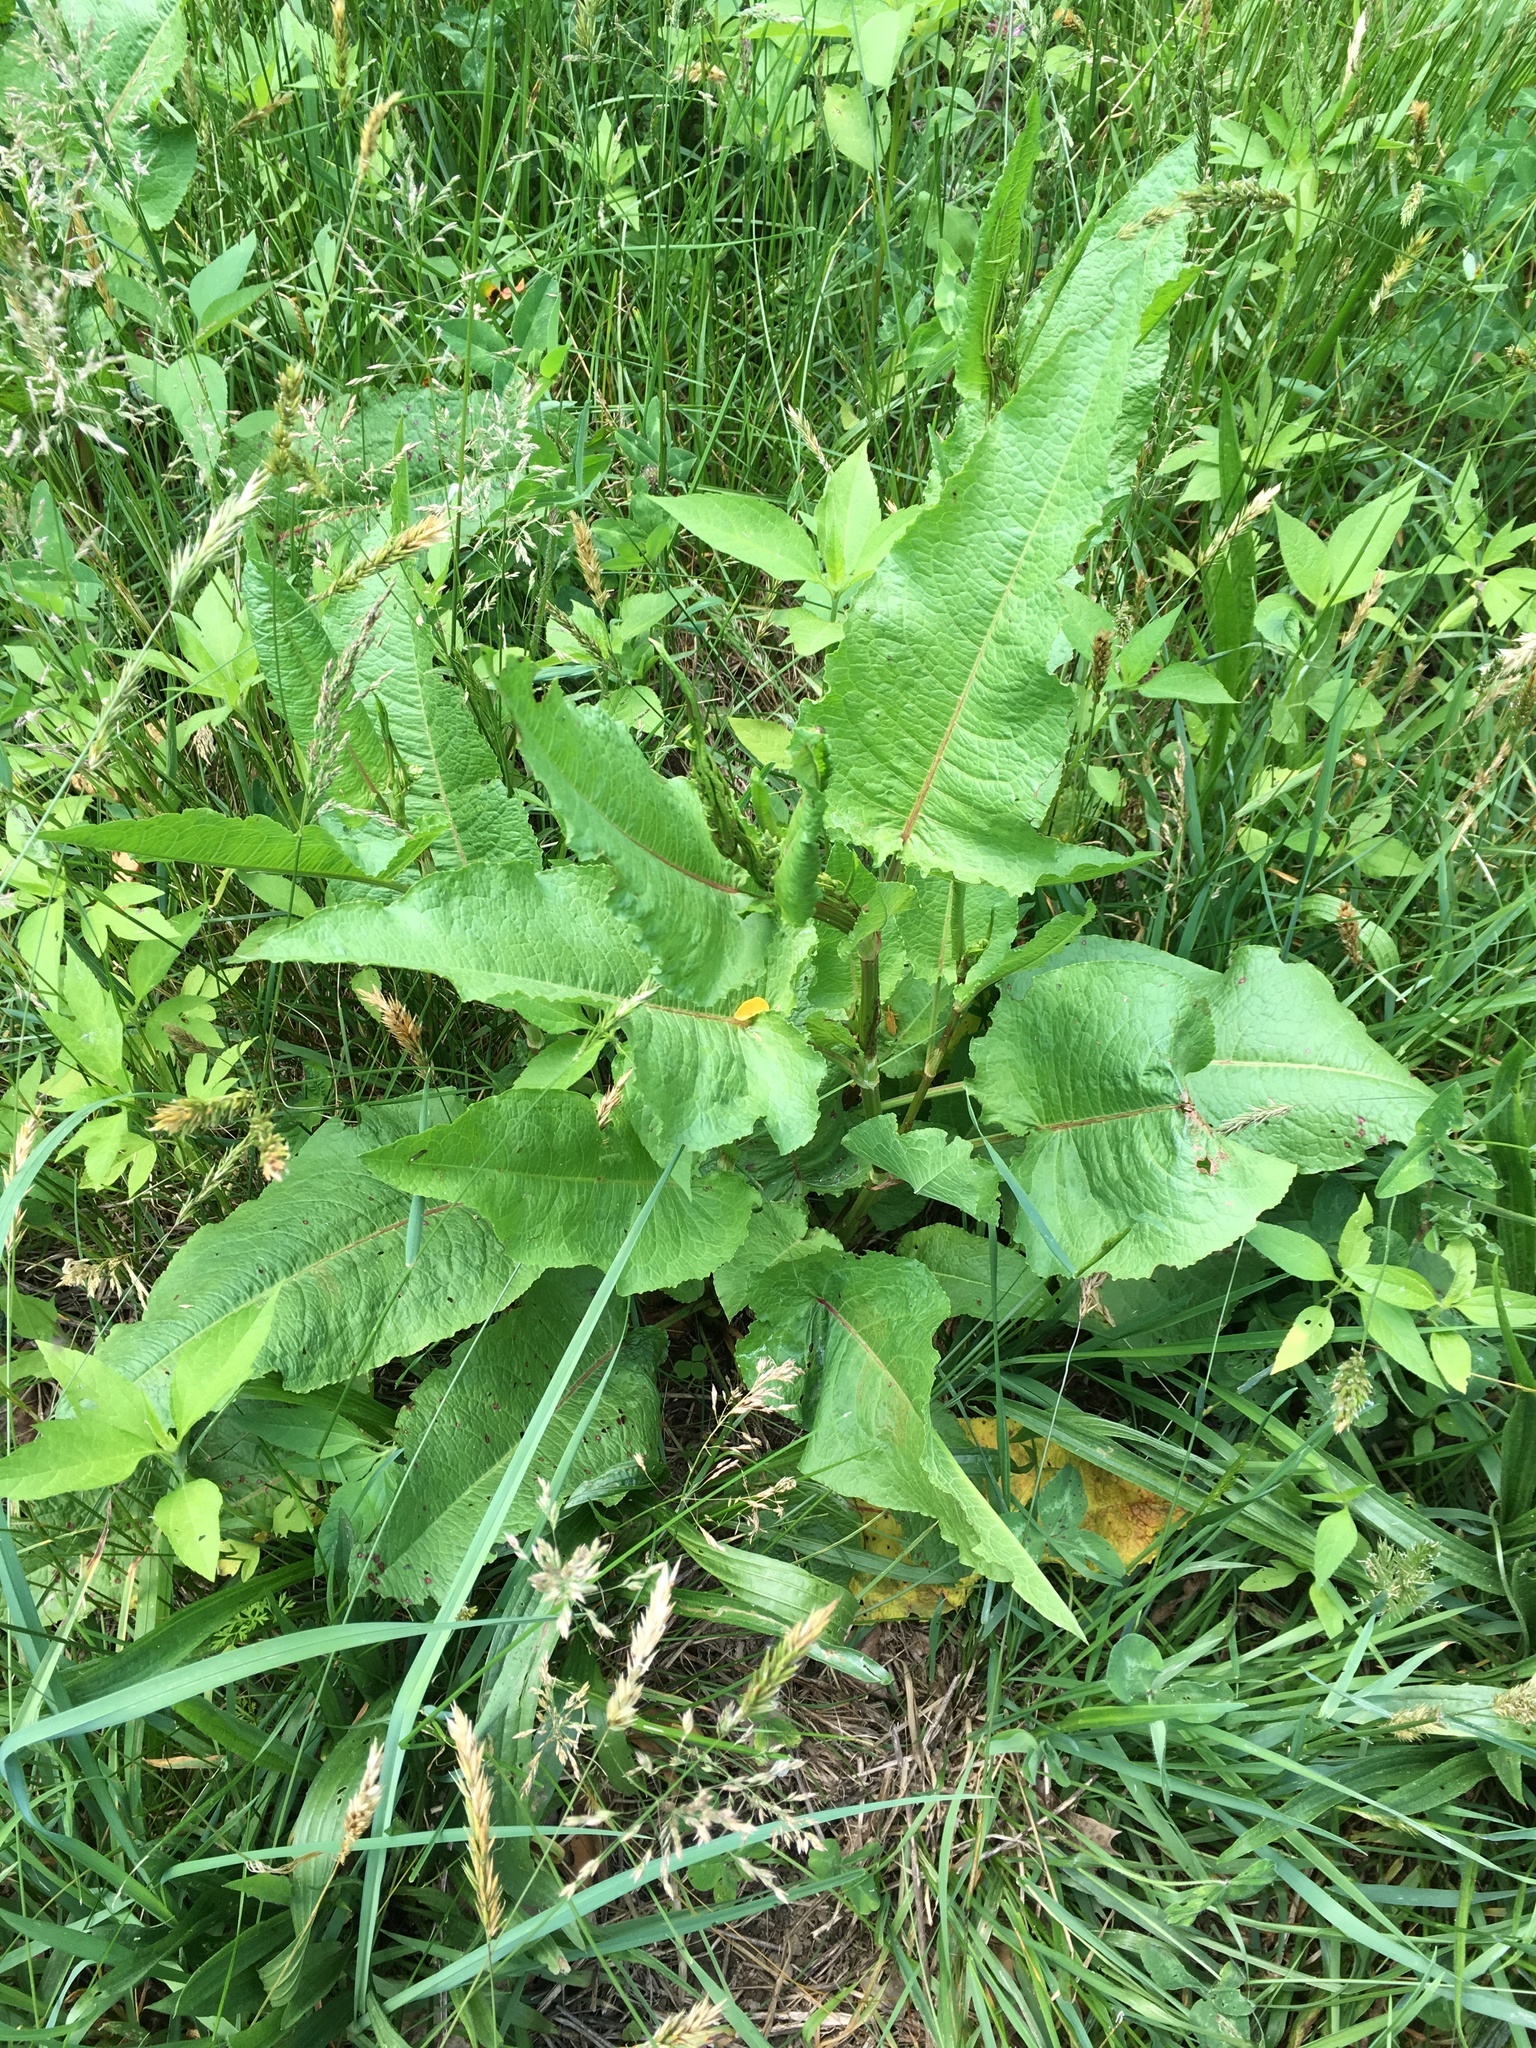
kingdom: Plantae
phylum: Tracheophyta
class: Magnoliopsida
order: Caryophyllales
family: Polygonaceae
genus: Rumex
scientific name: Rumex obtusifolius
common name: Bitter dock
